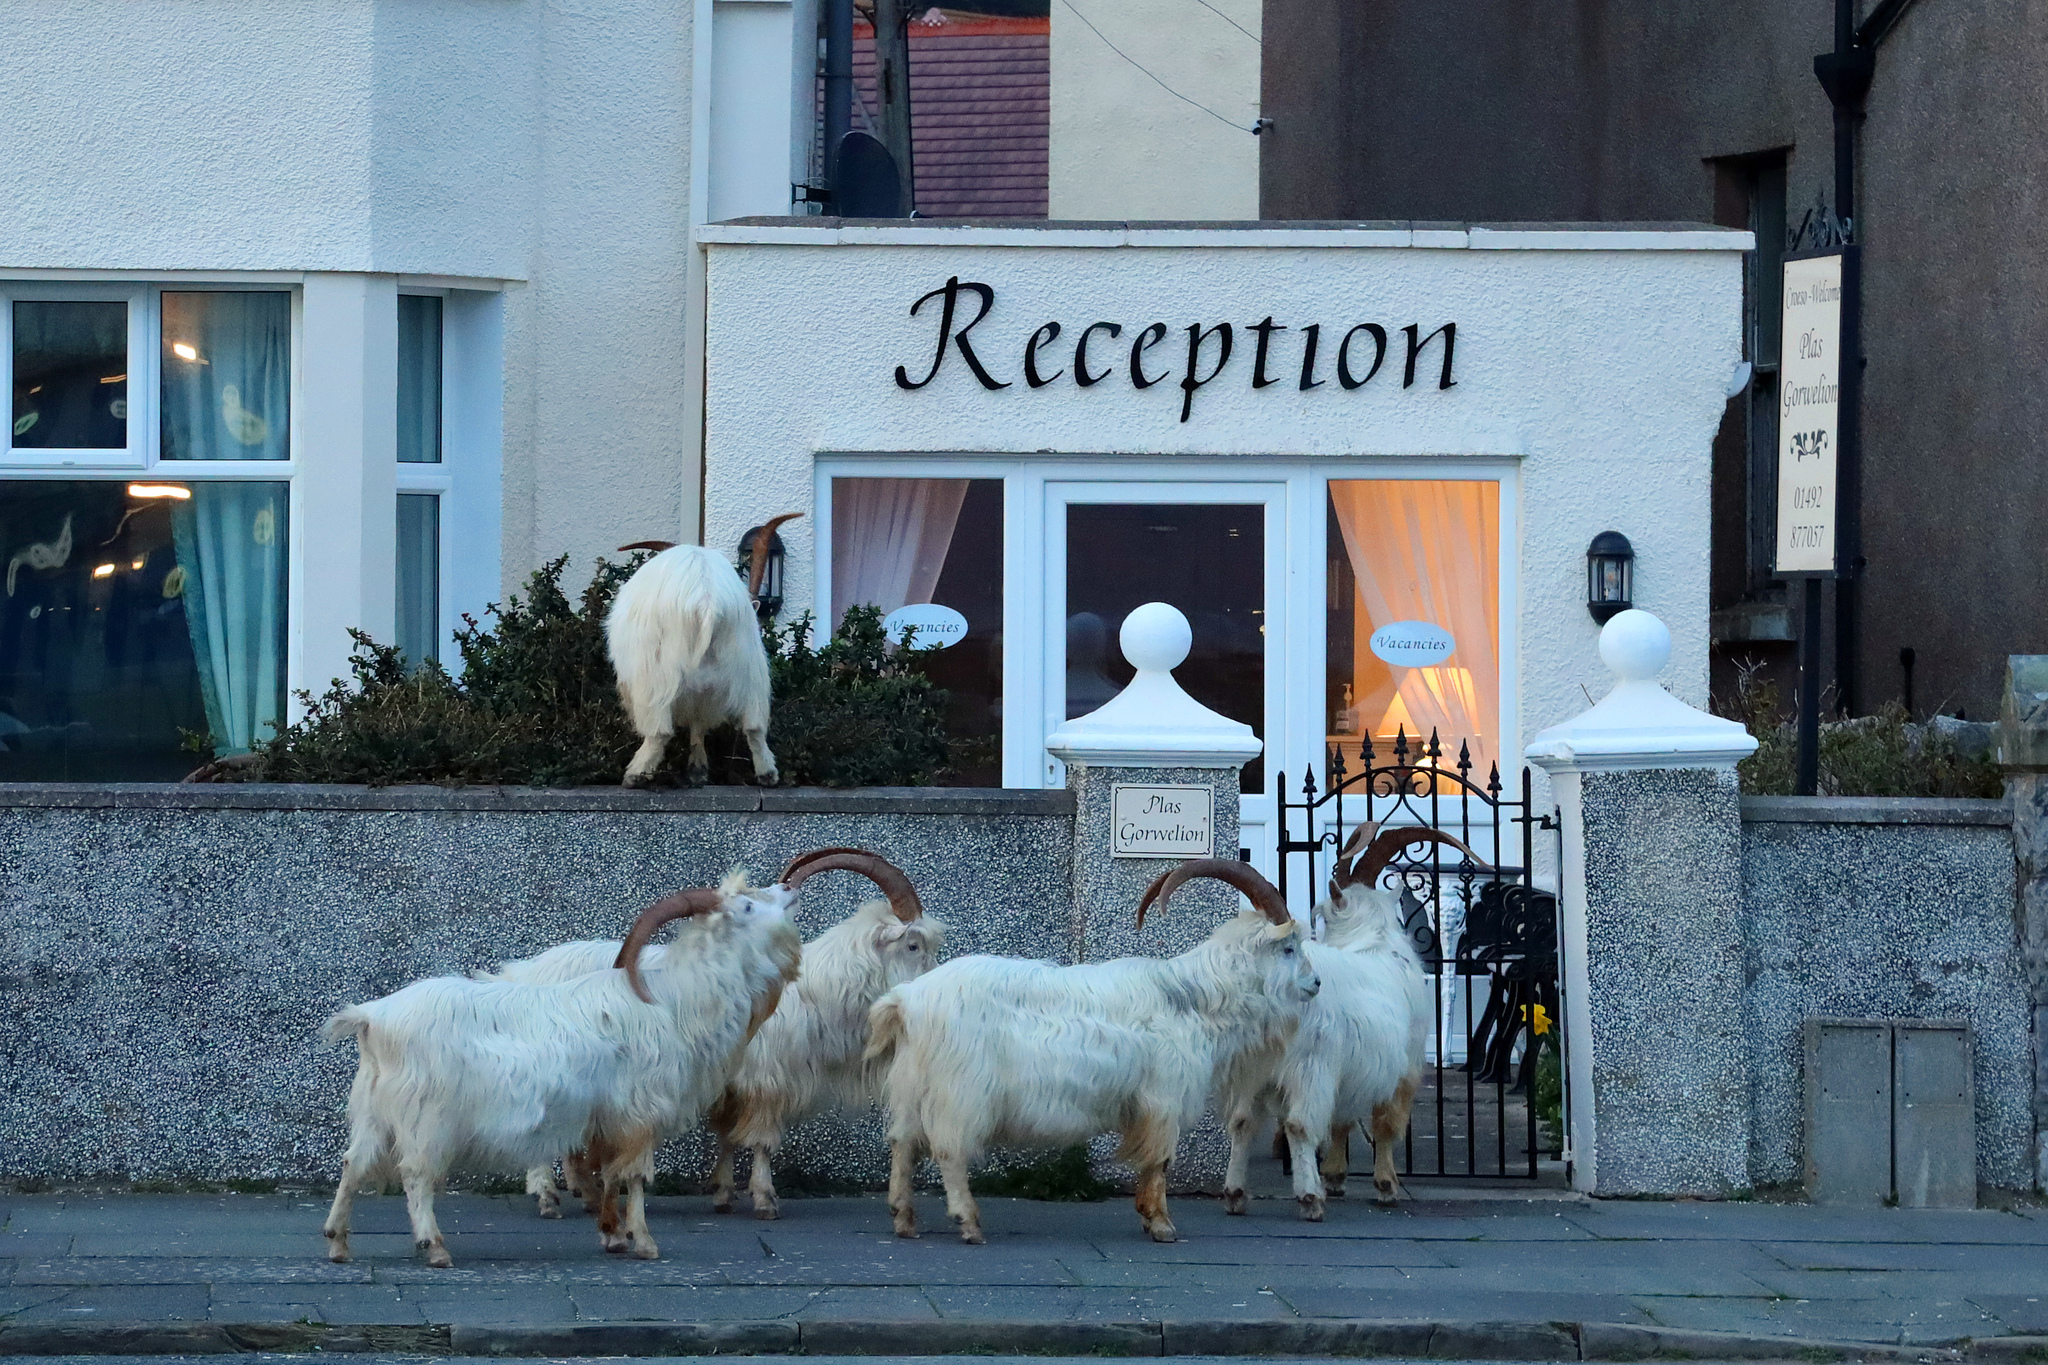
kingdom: Animalia
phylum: Chordata
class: Mammalia
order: Artiodactyla
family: Bovidae
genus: Capra
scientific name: Capra hircus
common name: Domestic goat
